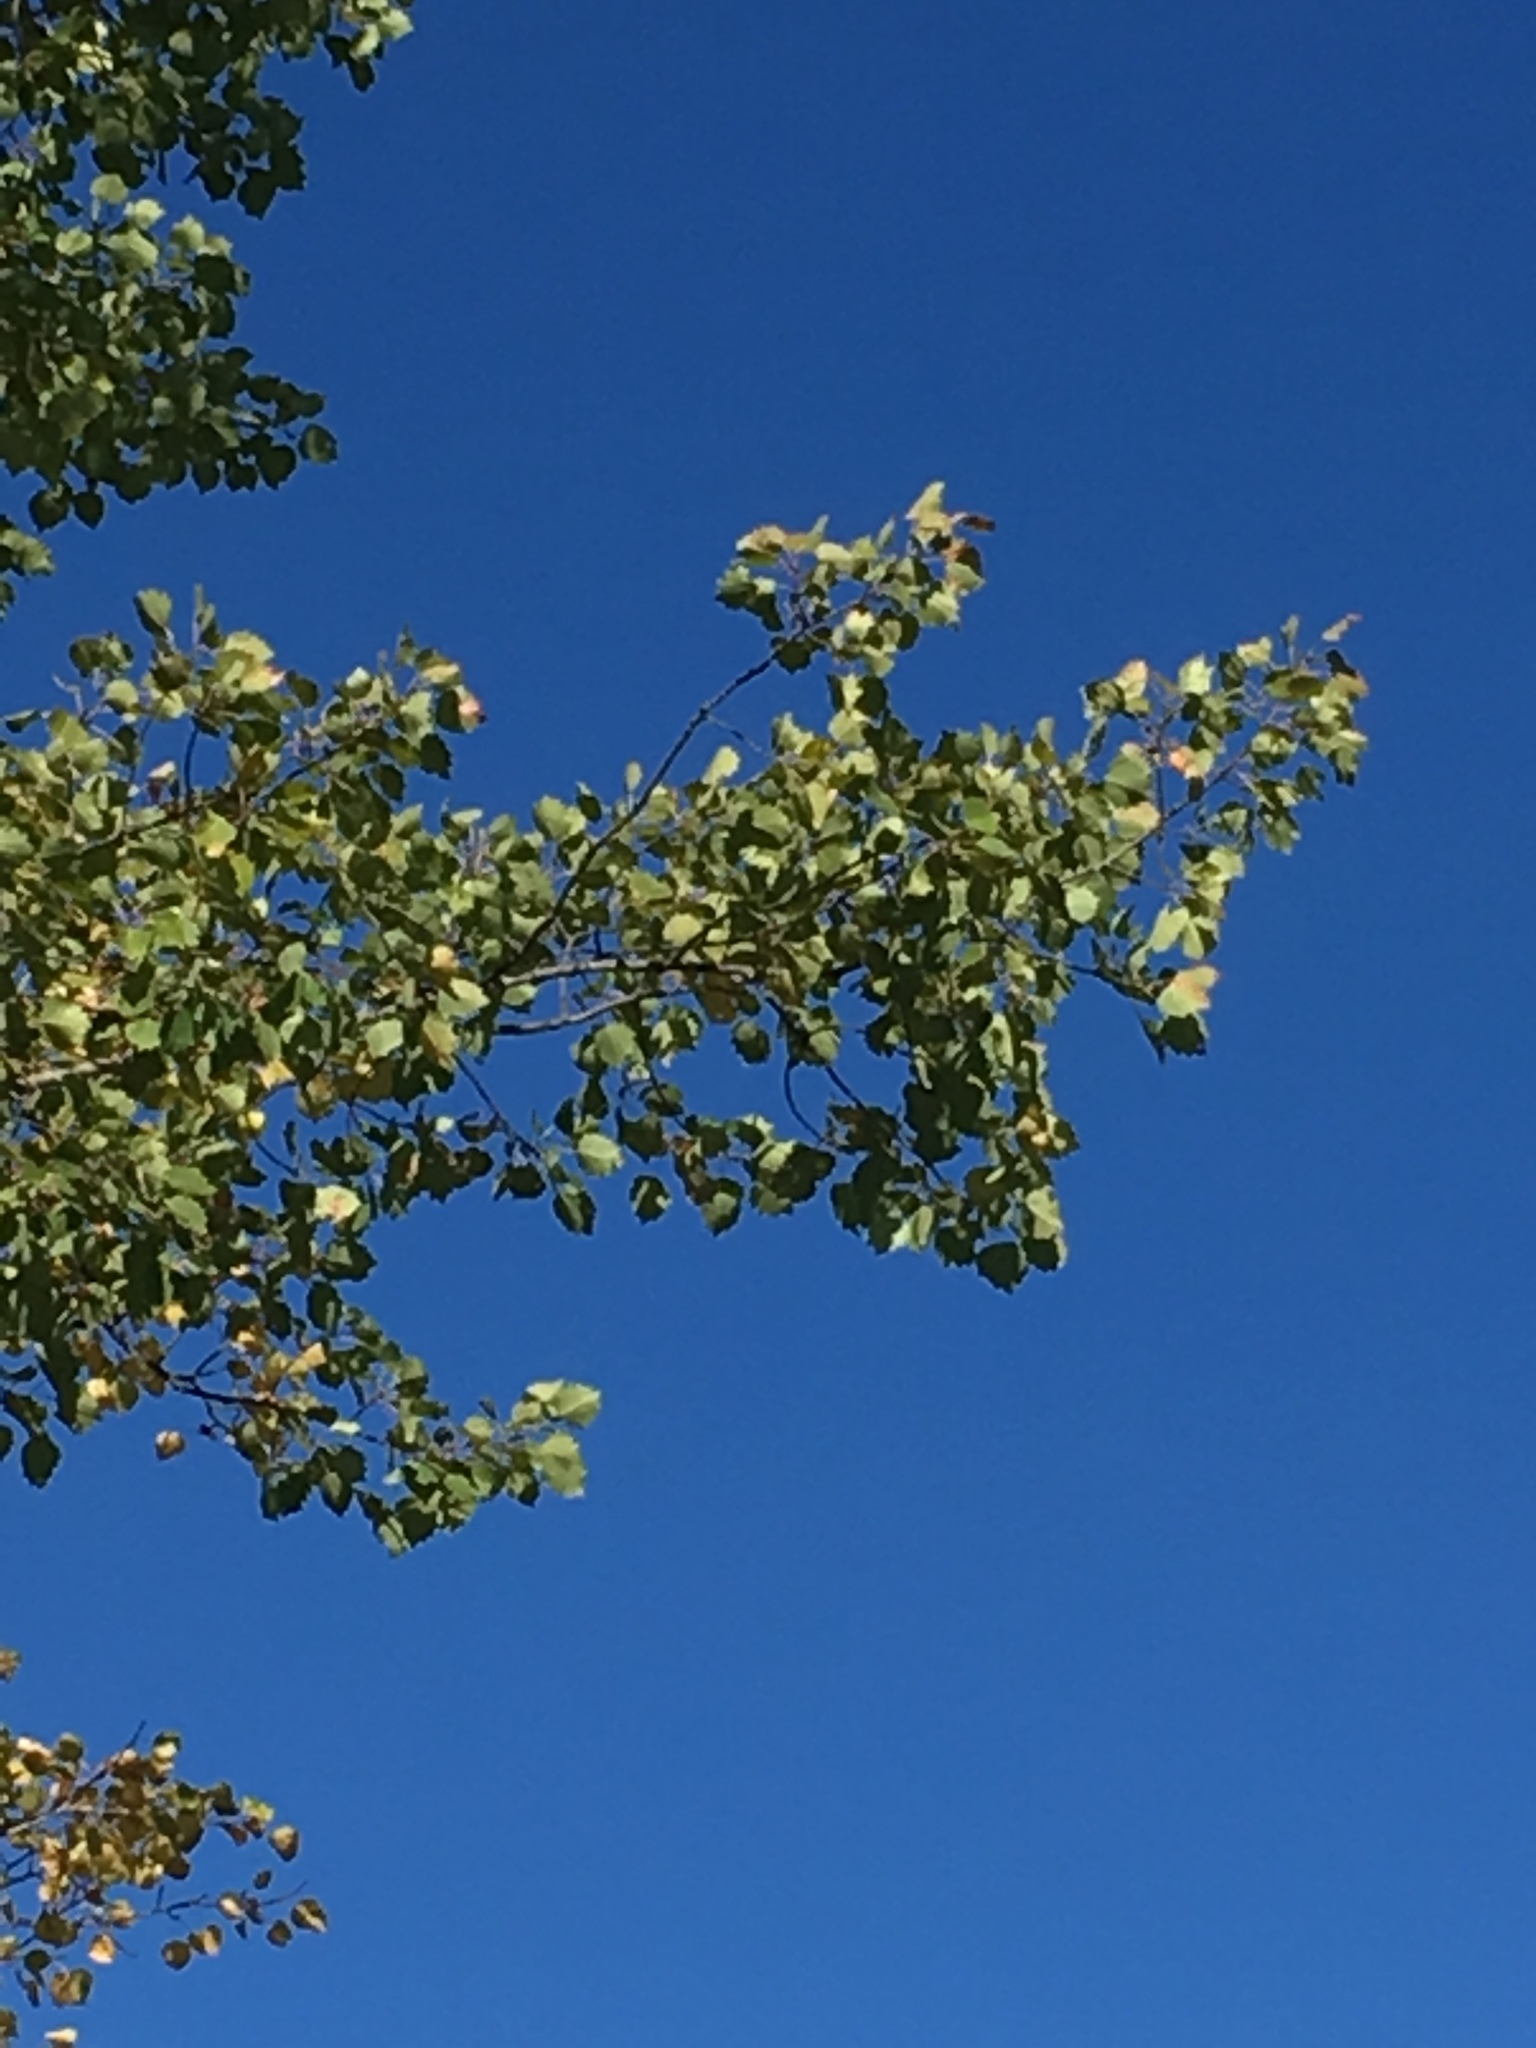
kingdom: Plantae
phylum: Tracheophyta
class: Magnoliopsida
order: Malpighiales
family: Salicaceae
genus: Populus
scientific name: Populus grandidentata
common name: Bigtooth aspen
